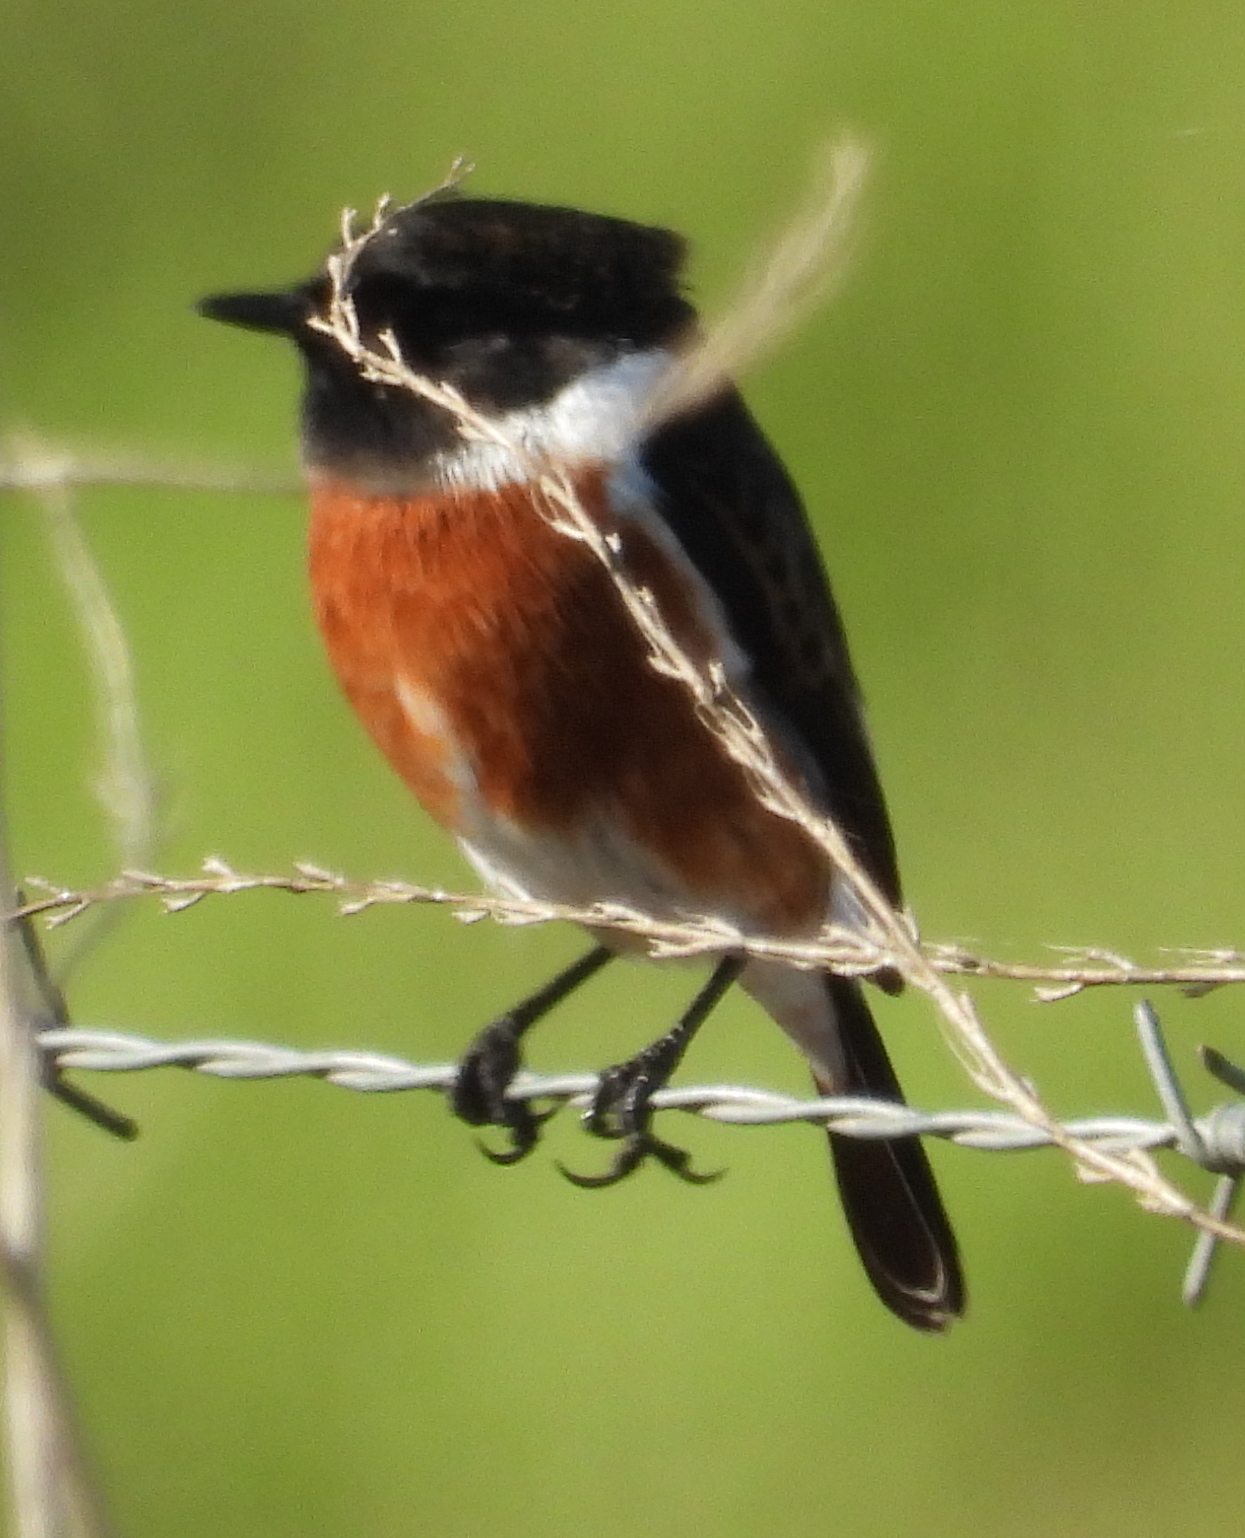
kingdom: Animalia
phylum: Chordata
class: Aves
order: Passeriformes
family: Muscicapidae
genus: Saxicola
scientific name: Saxicola torquatus
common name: African stonechat
